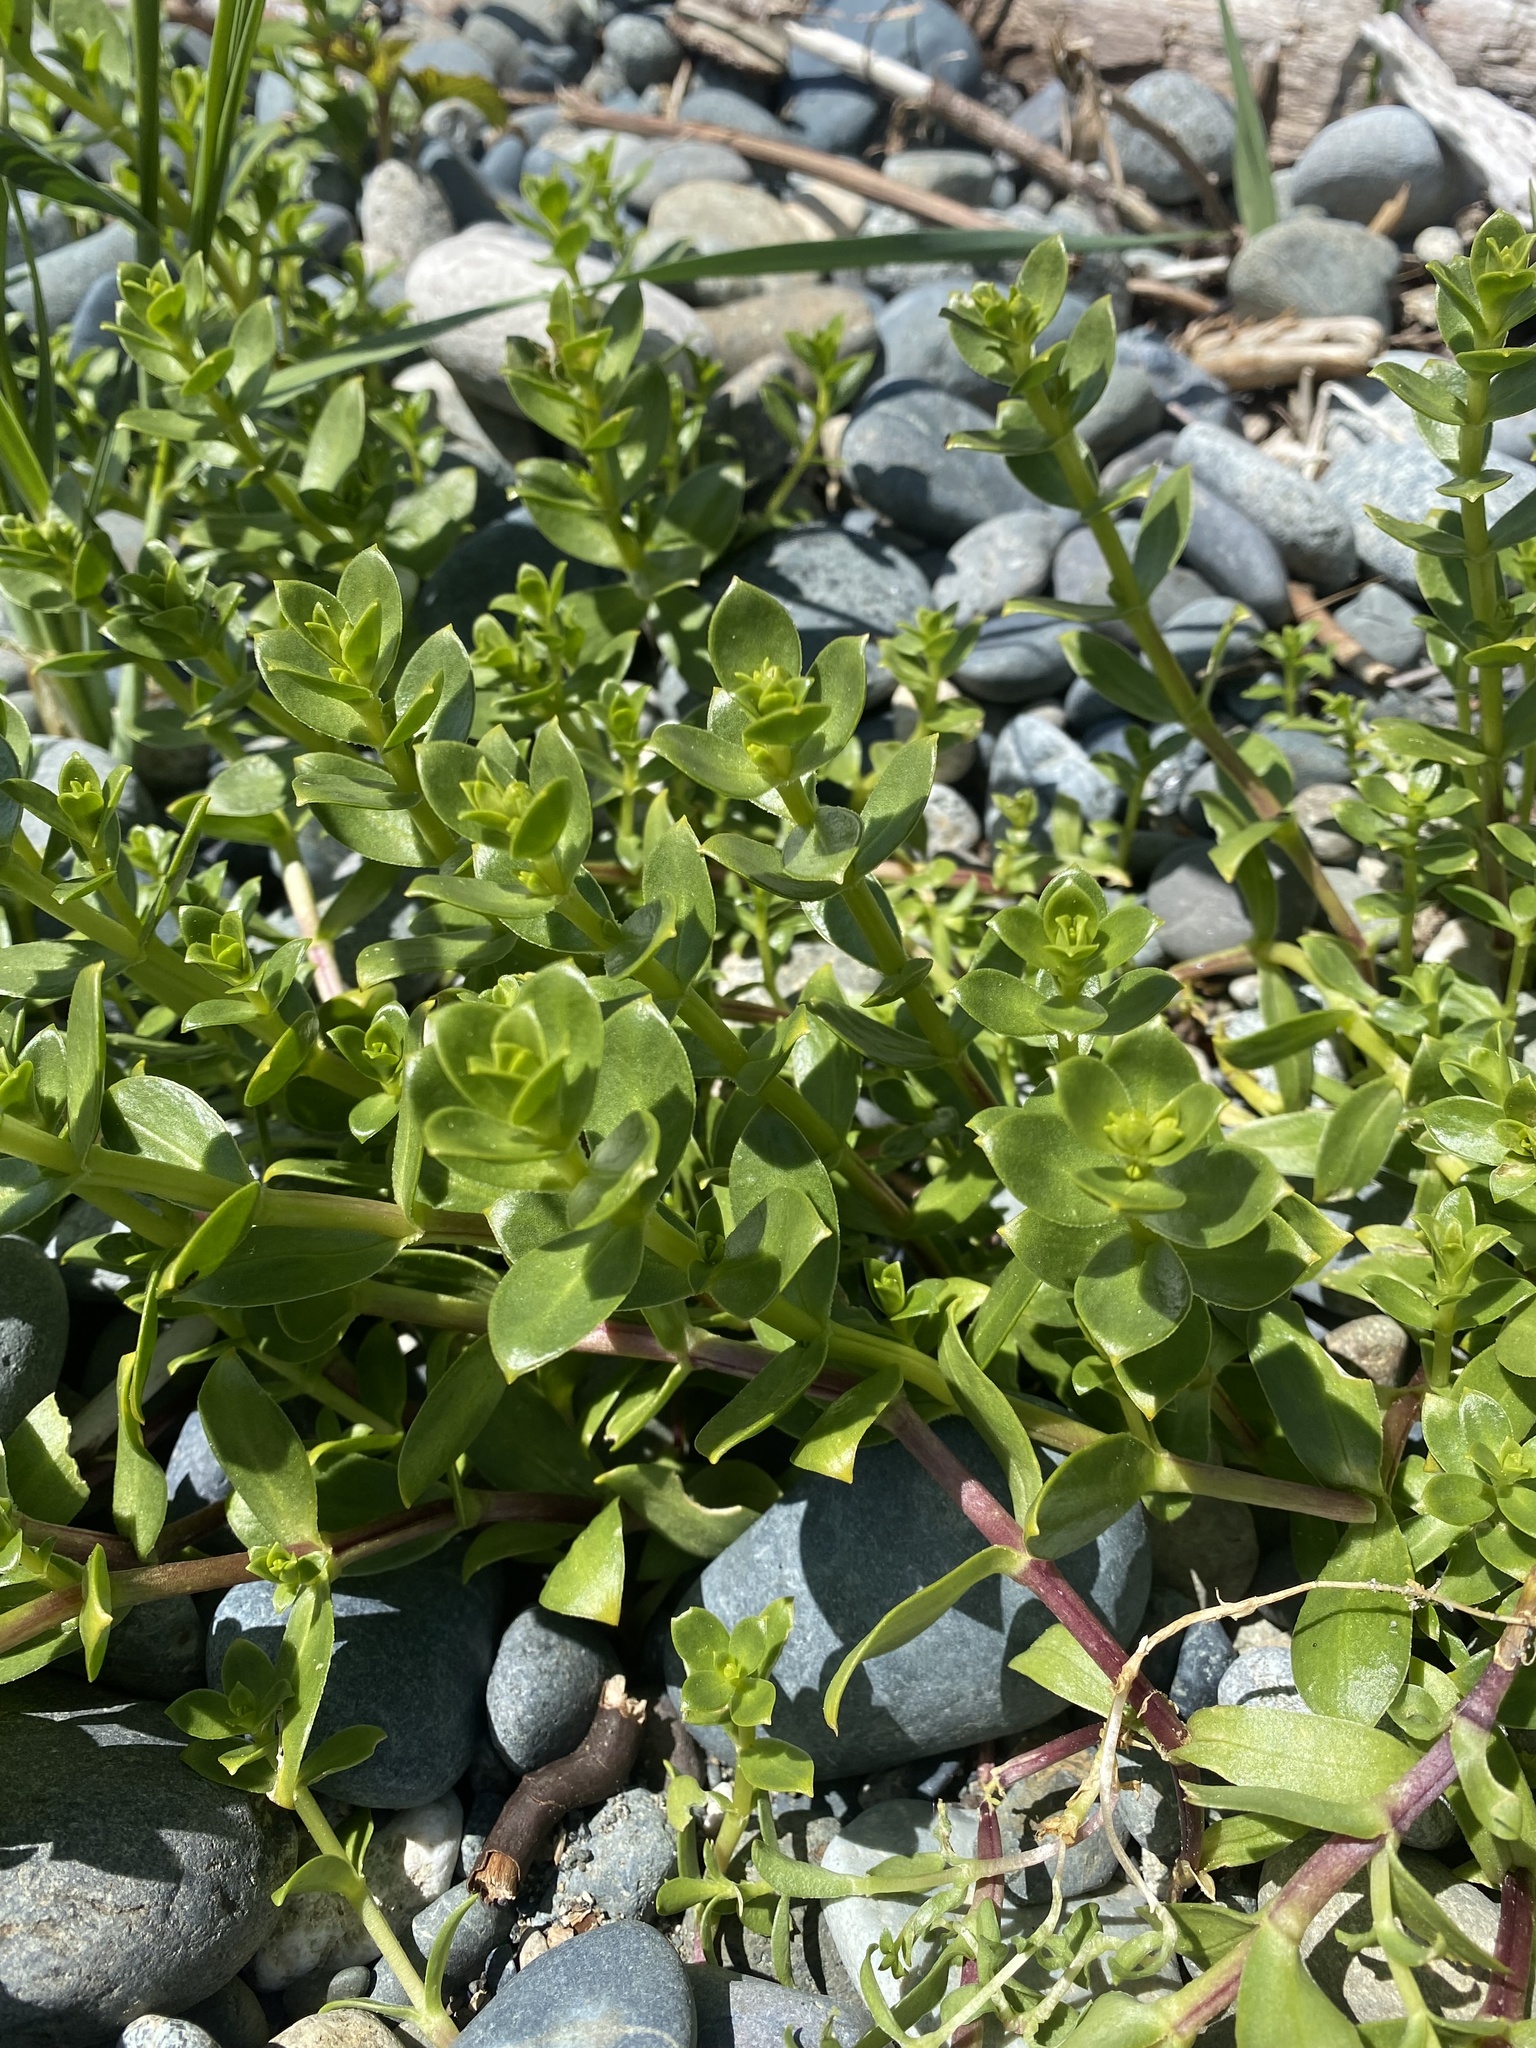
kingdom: Plantae
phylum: Tracheophyta
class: Magnoliopsida
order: Caryophyllales
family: Caryophyllaceae
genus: Honckenya
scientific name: Honckenya peploides
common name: Sea sandwort
